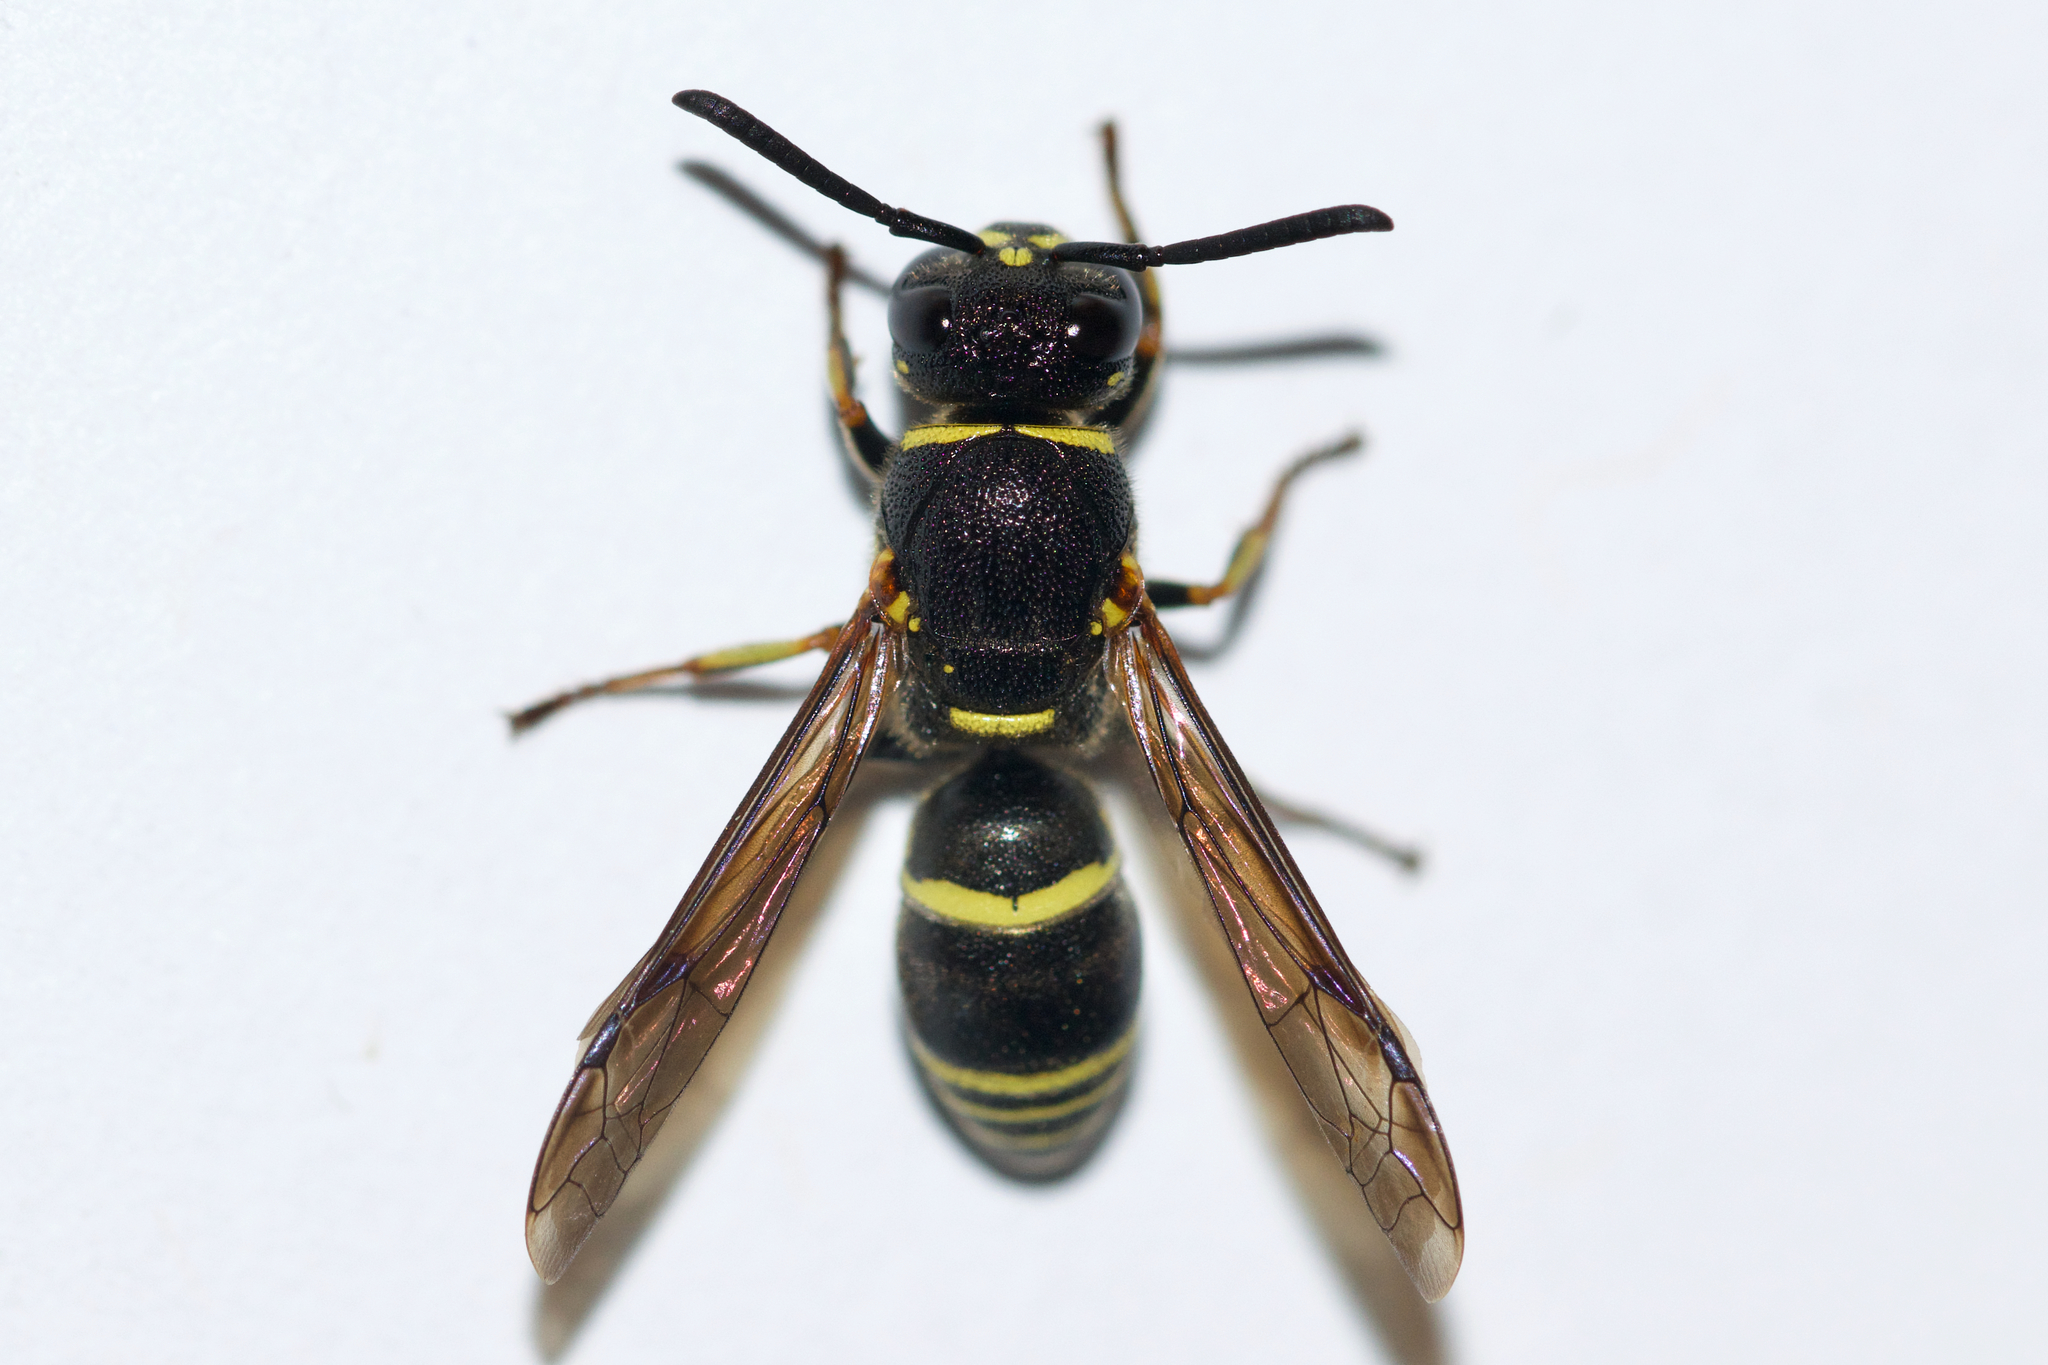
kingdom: Animalia
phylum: Arthropoda
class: Insecta
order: Hymenoptera
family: Eumenidae
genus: Euodynerus
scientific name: Euodynerus foraminatus
